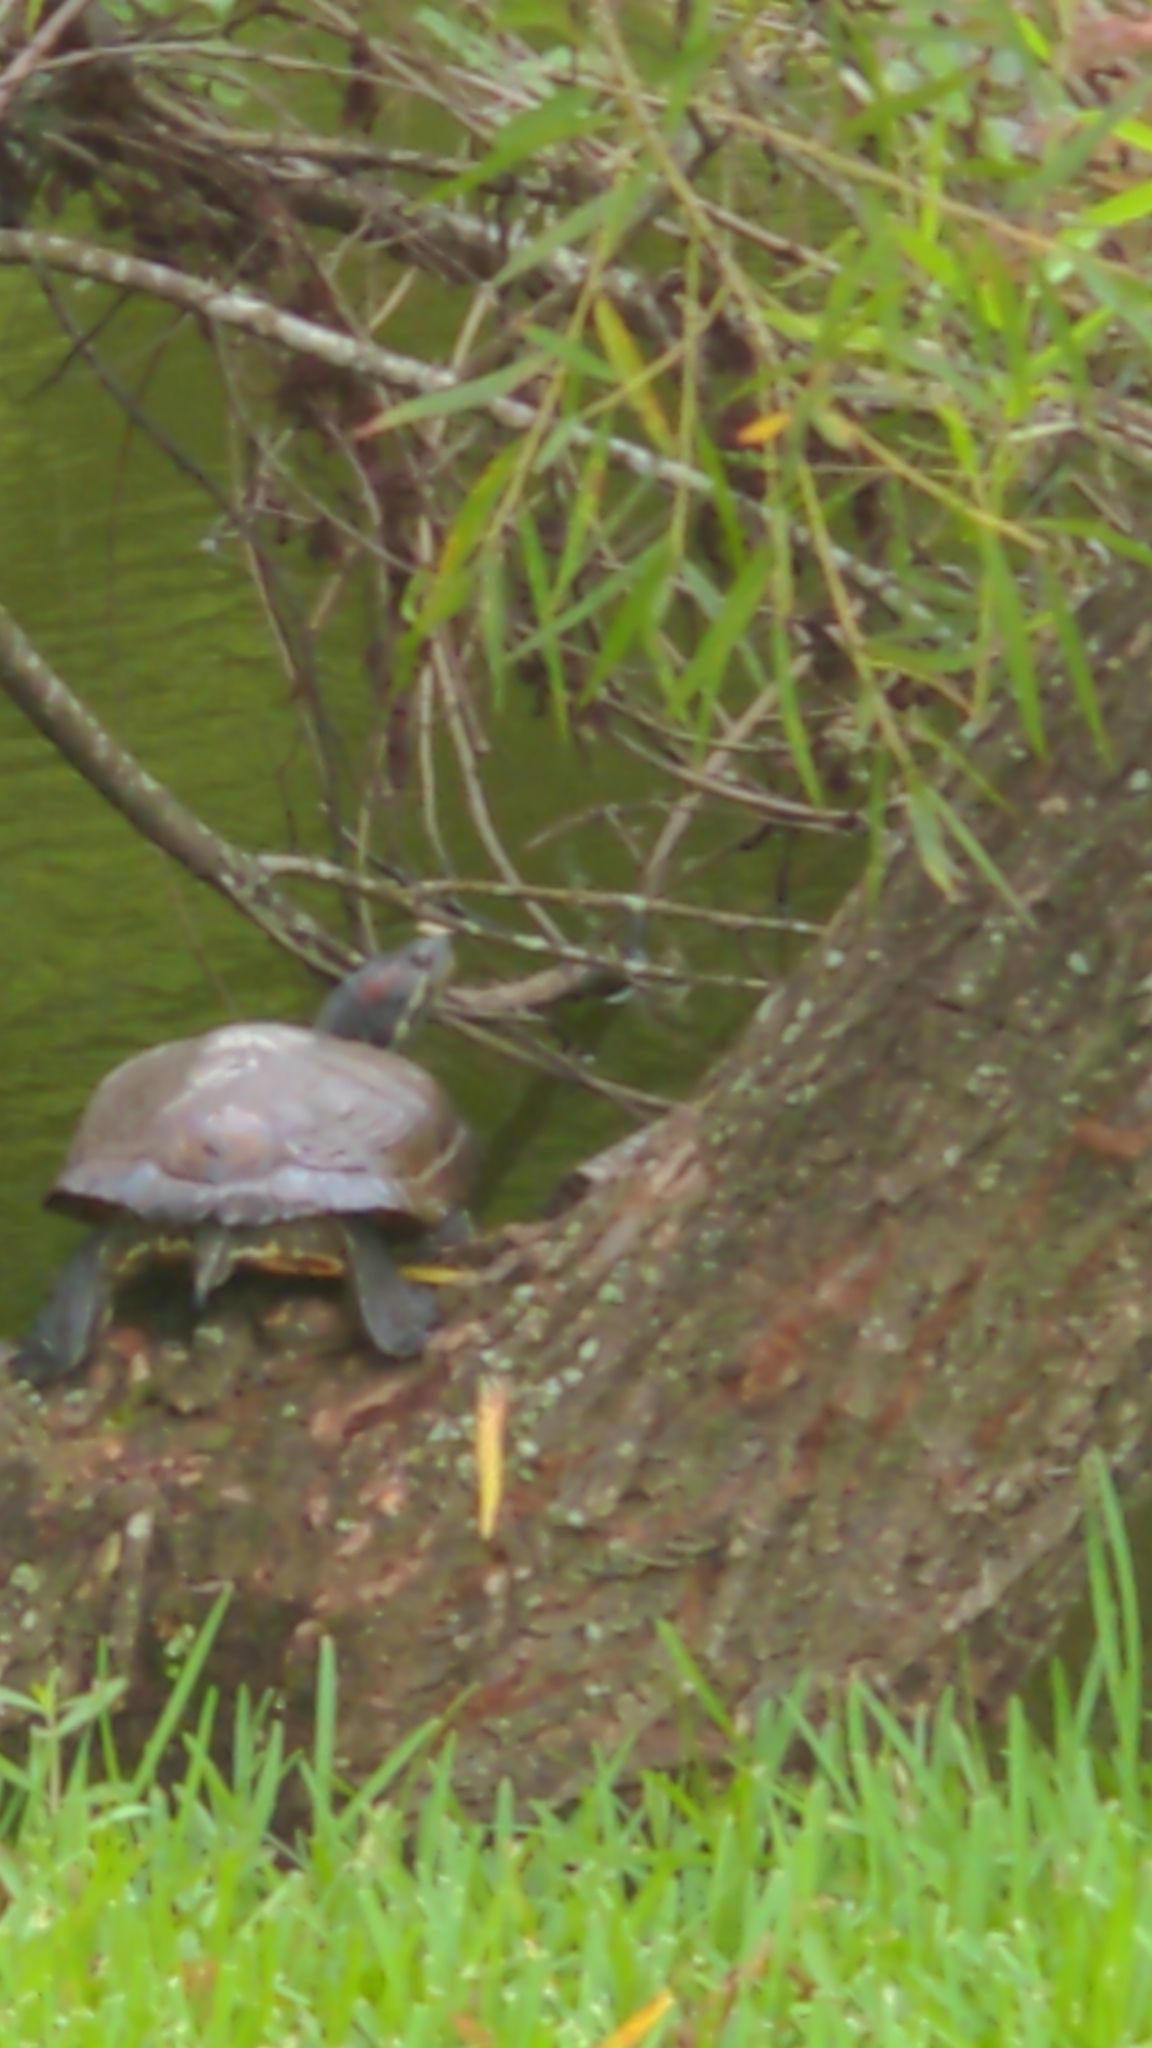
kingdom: Animalia
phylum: Chordata
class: Testudines
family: Emydidae
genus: Trachemys
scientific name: Trachemys scripta
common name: Slider
